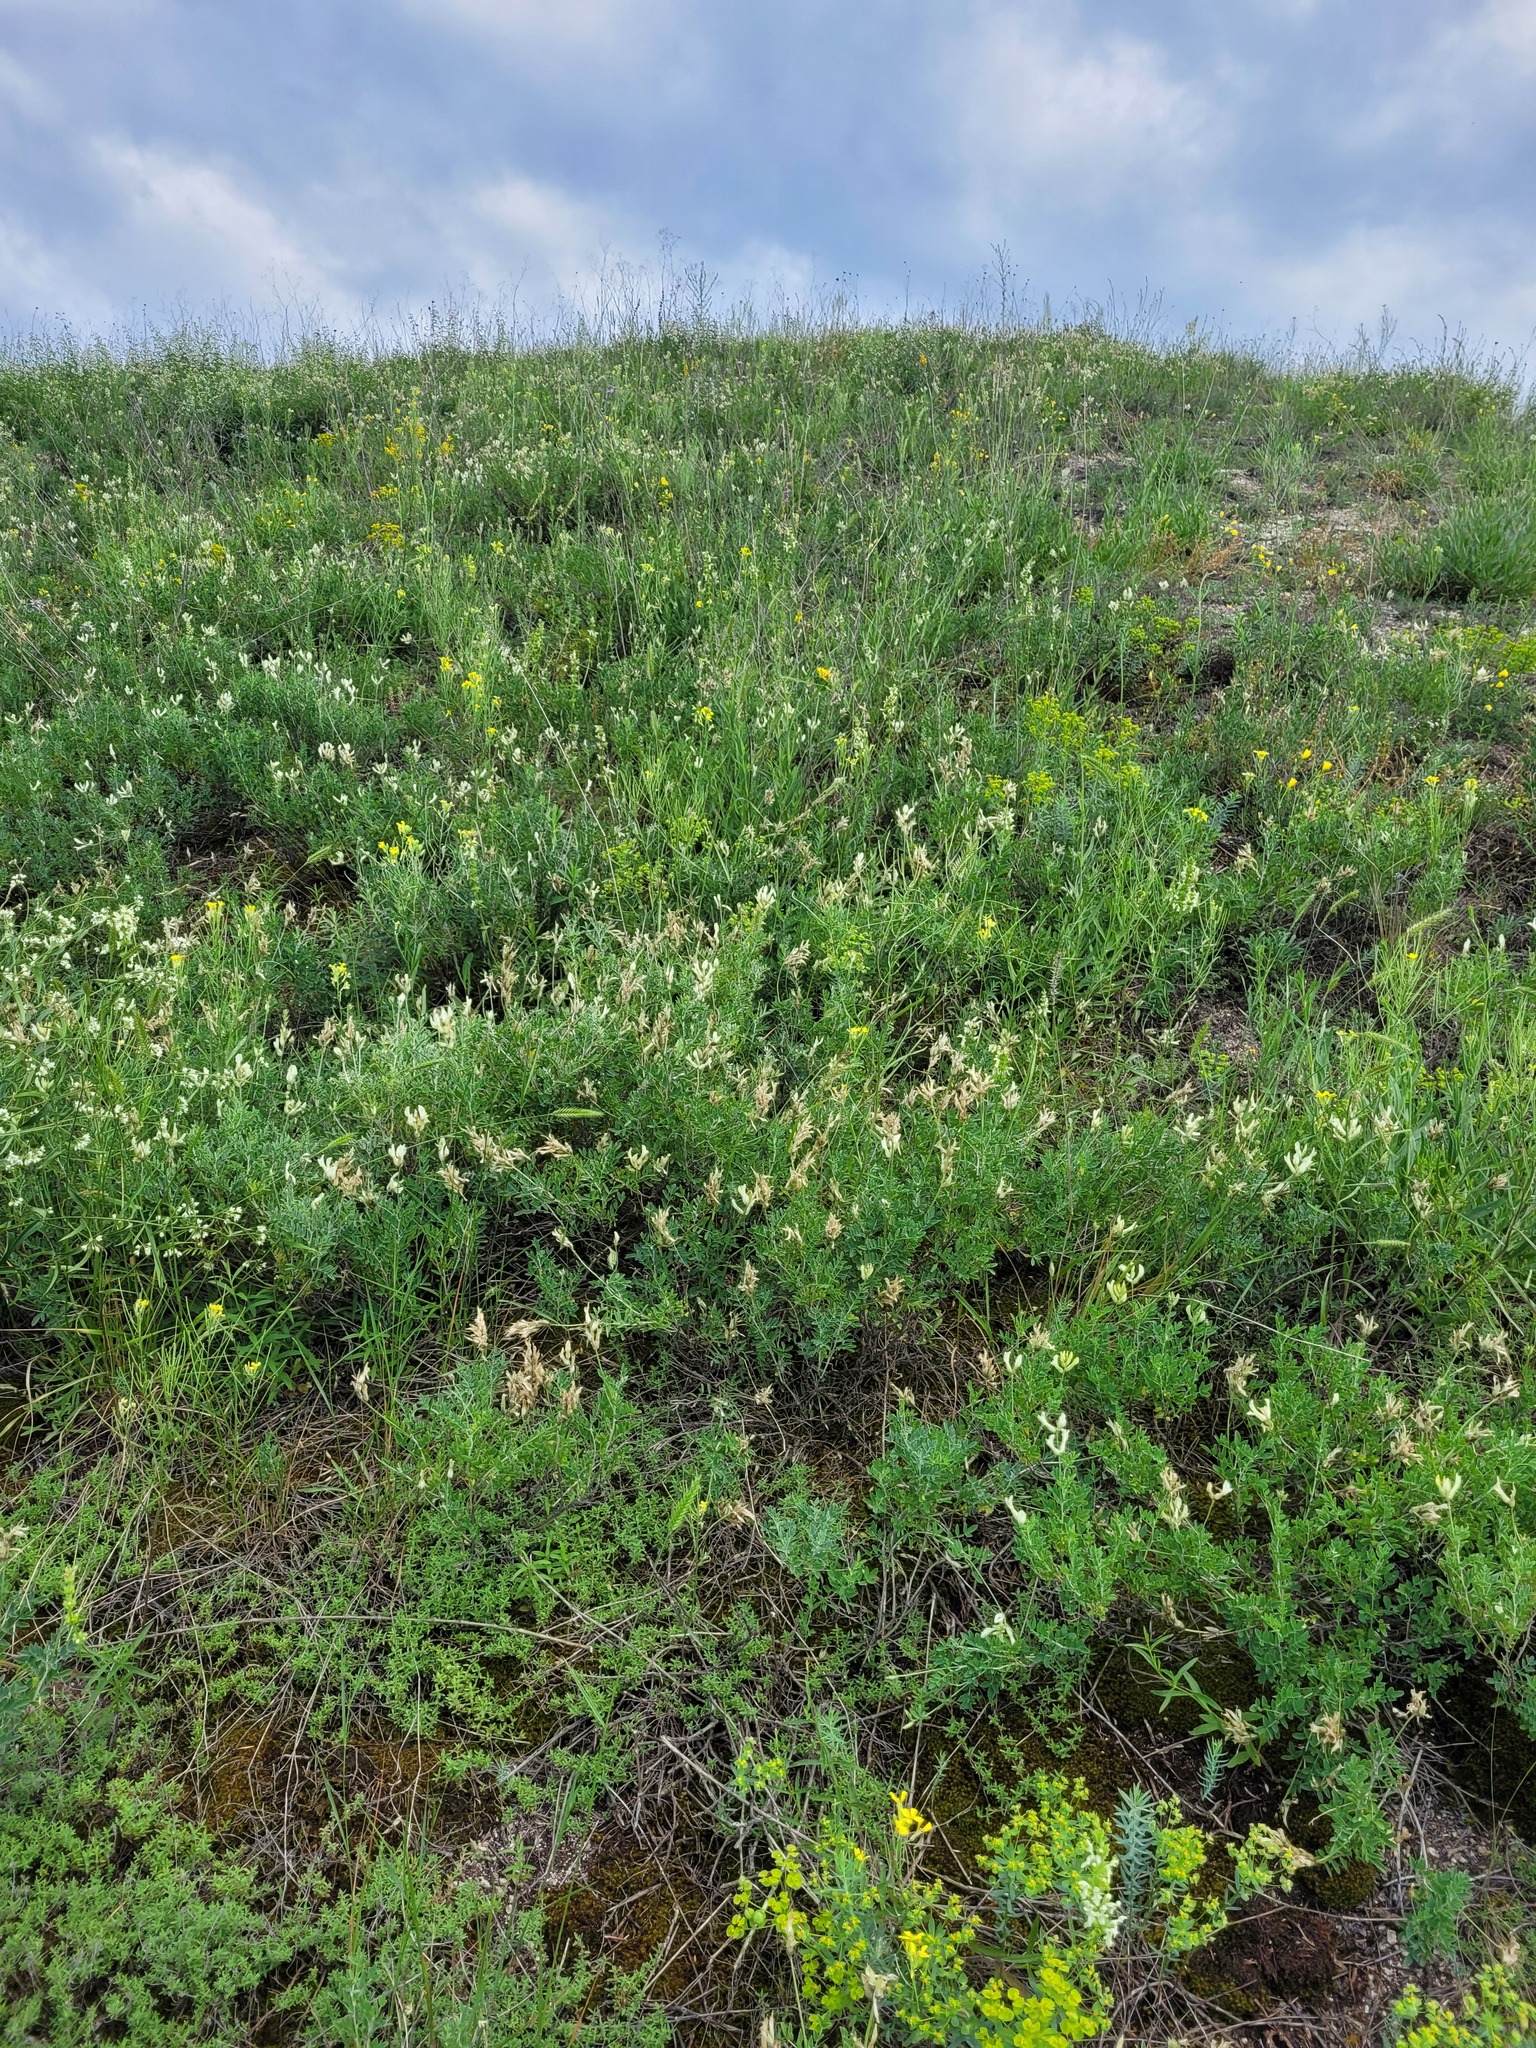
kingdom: Plantae
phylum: Tracheophyta
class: Magnoliopsida
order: Fabales
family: Fabaceae
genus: Astragalus
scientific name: Astragalus albicaulis
